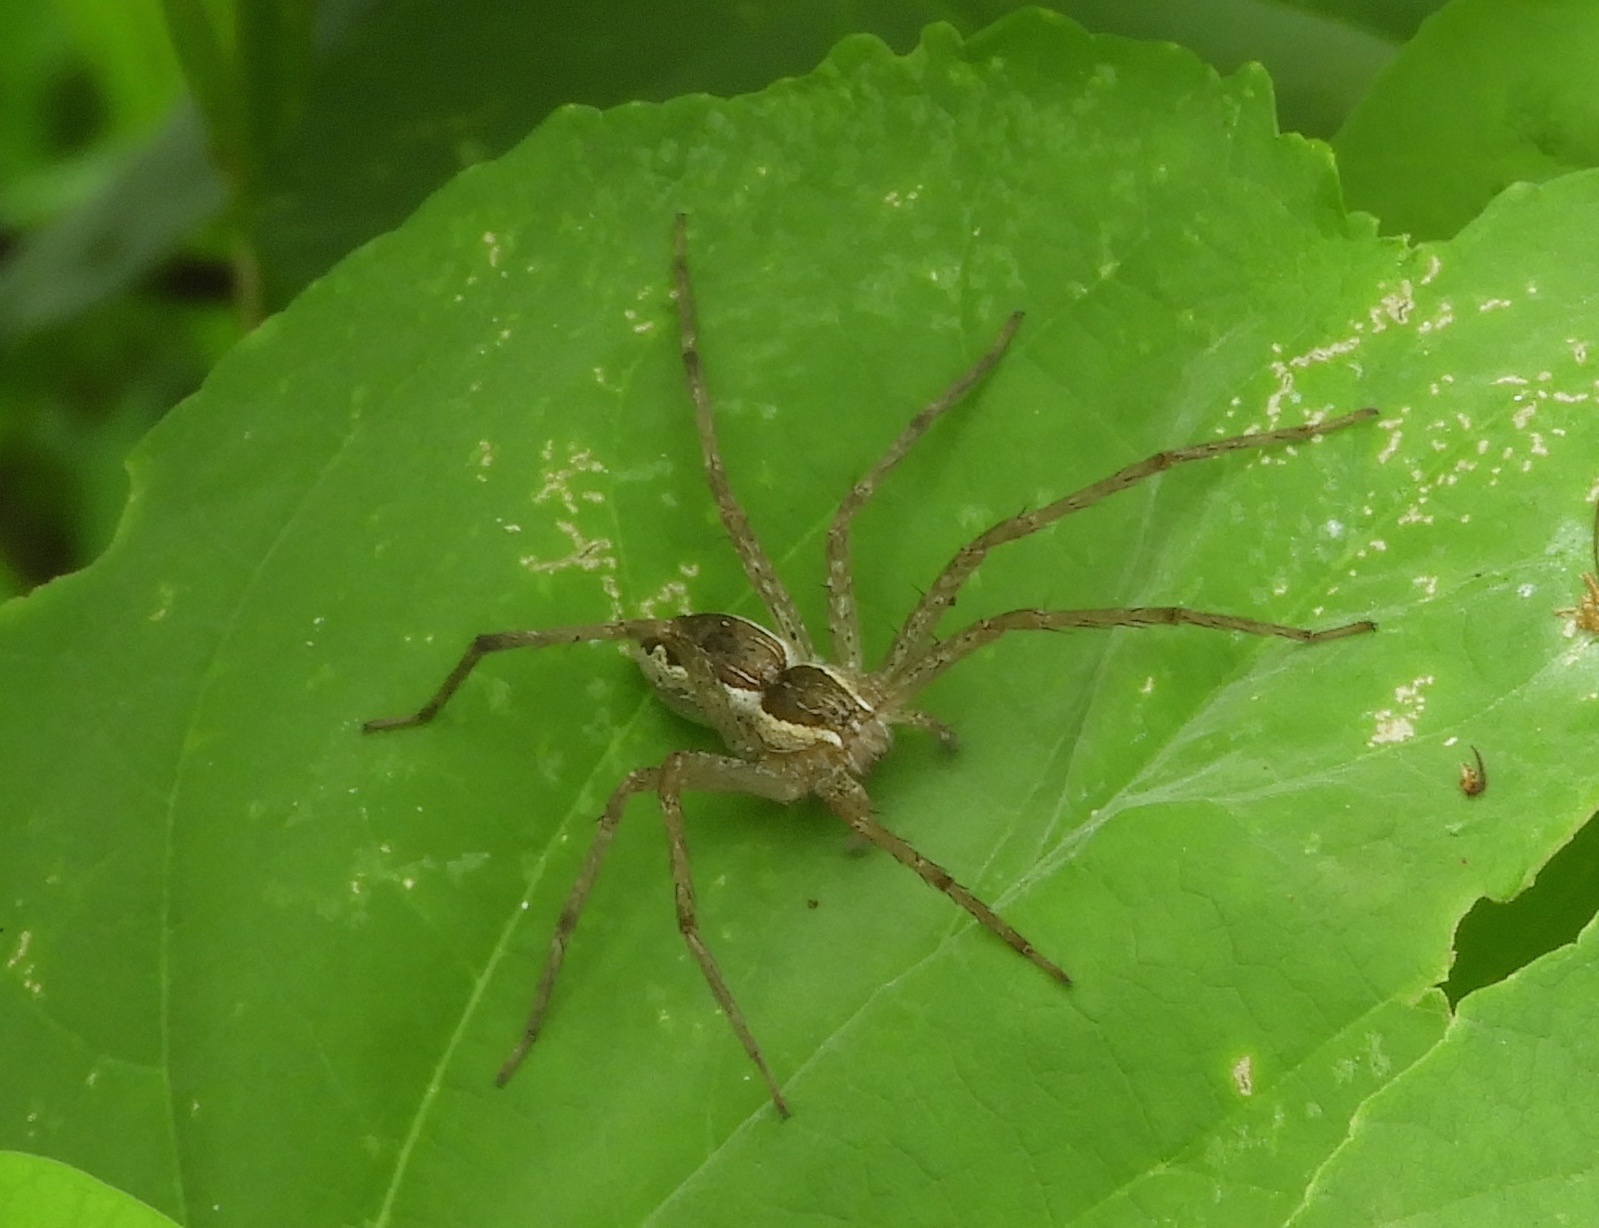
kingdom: Animalia
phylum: Arthropoda
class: Arachnida
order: Araneae
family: Pisauridae
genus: Tinus
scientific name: Tinus peregrinus
